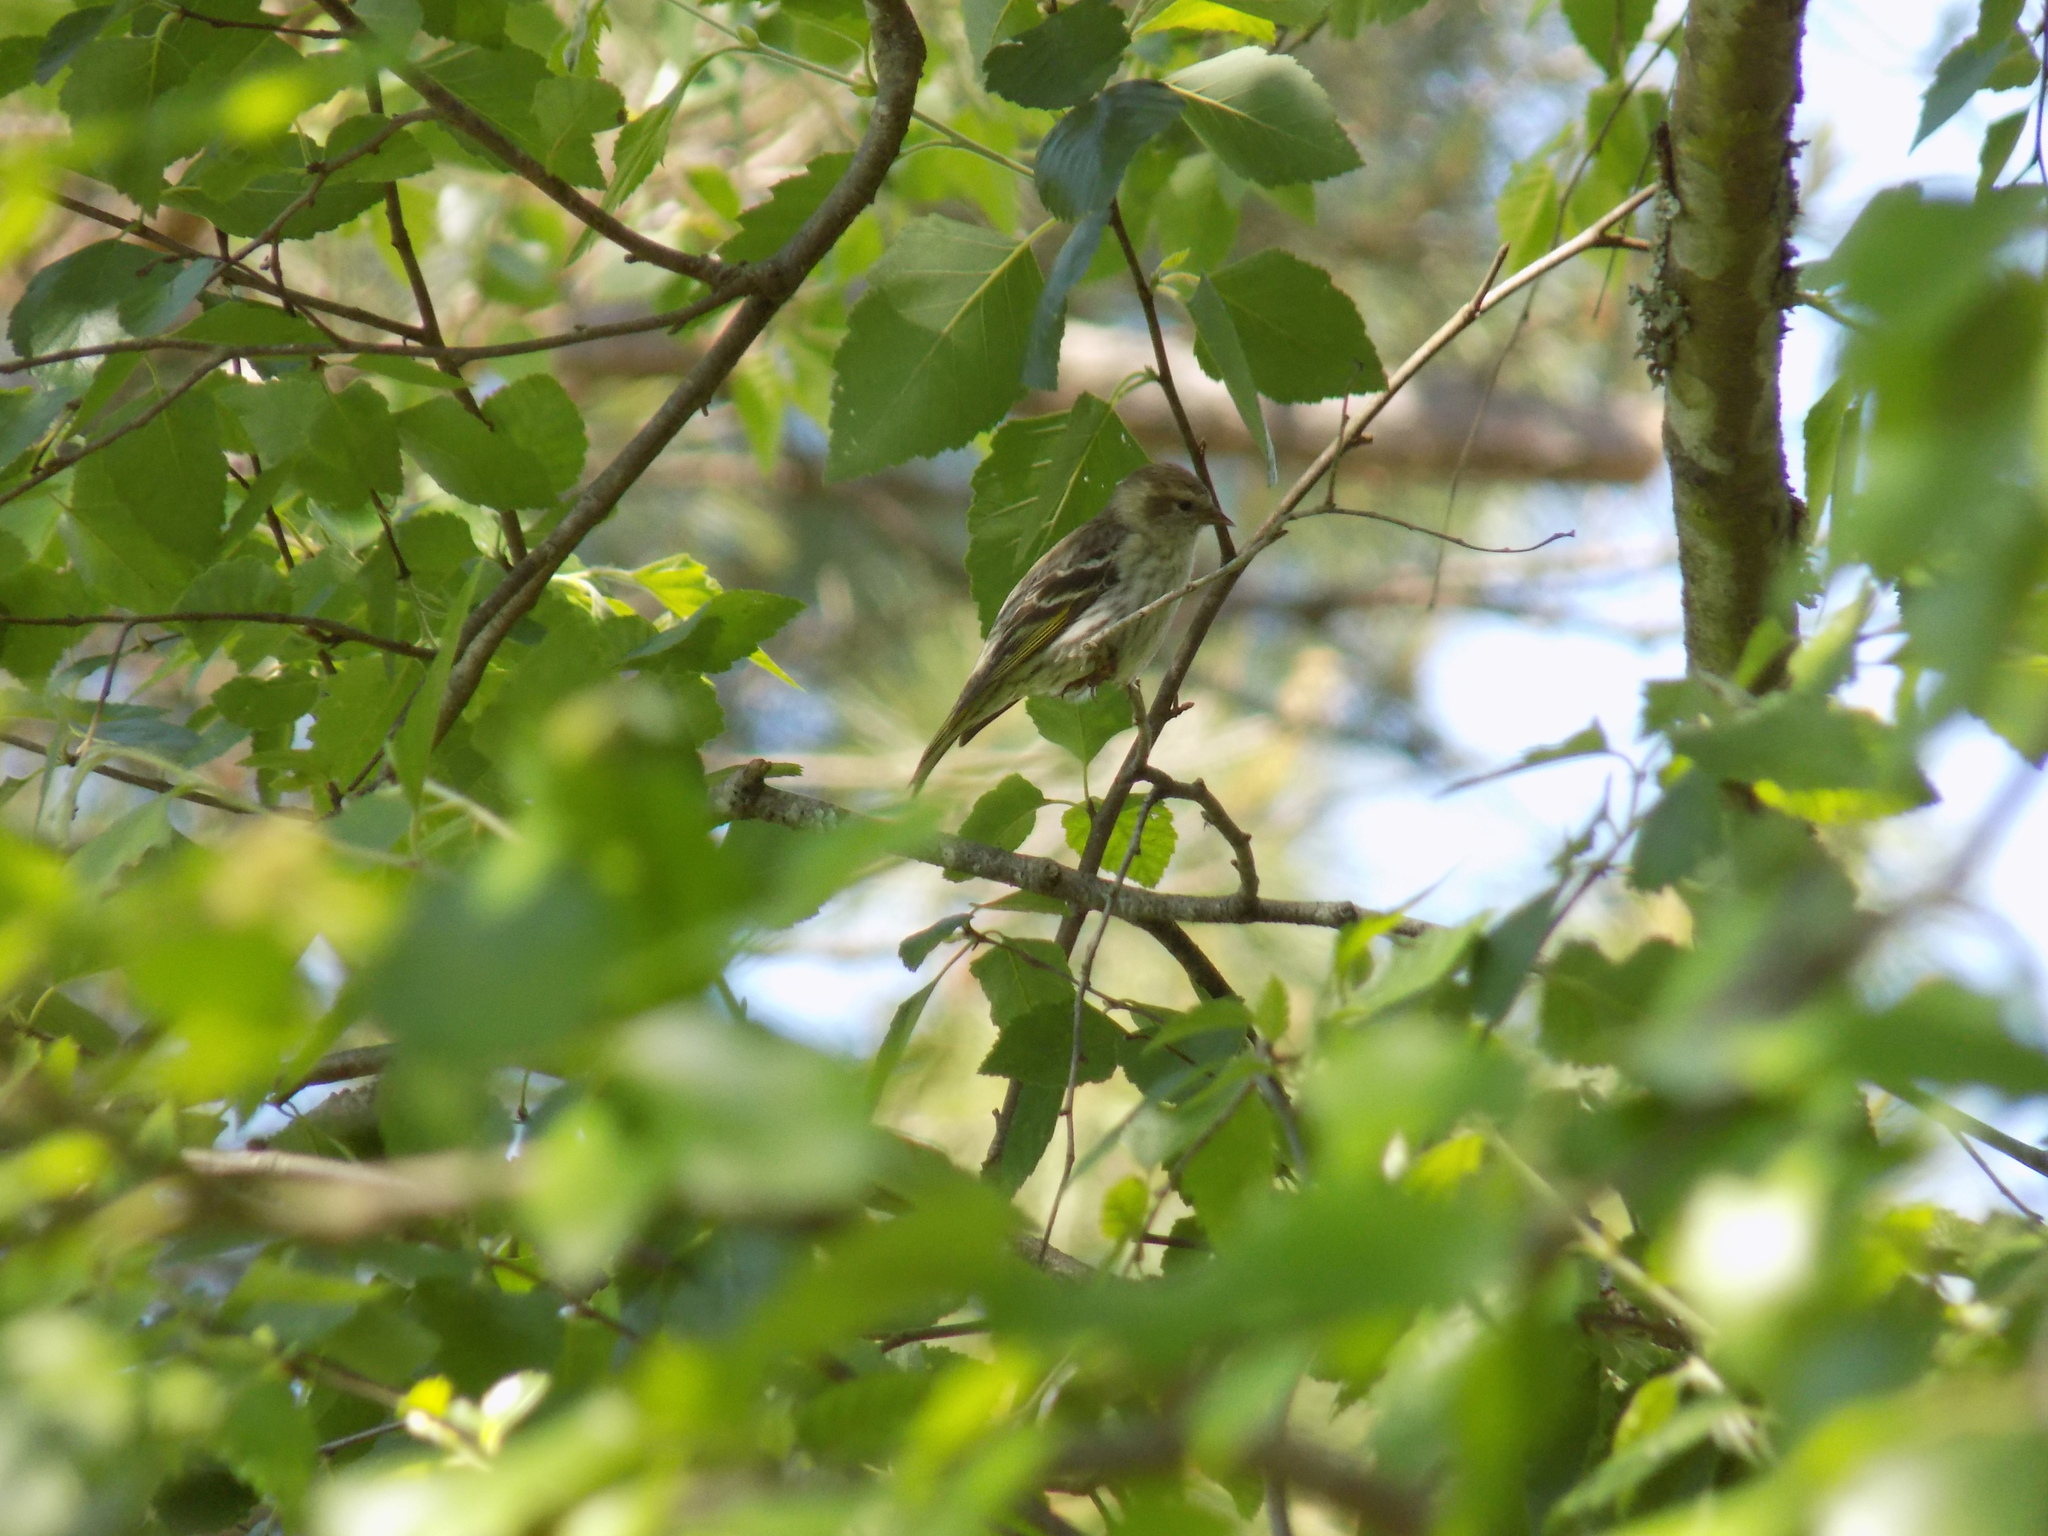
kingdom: Animalia
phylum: Chordata
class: Aves
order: Passeriformes
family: Fringillidae
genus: Spinus
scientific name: Spinus pinus
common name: Pine siskin
